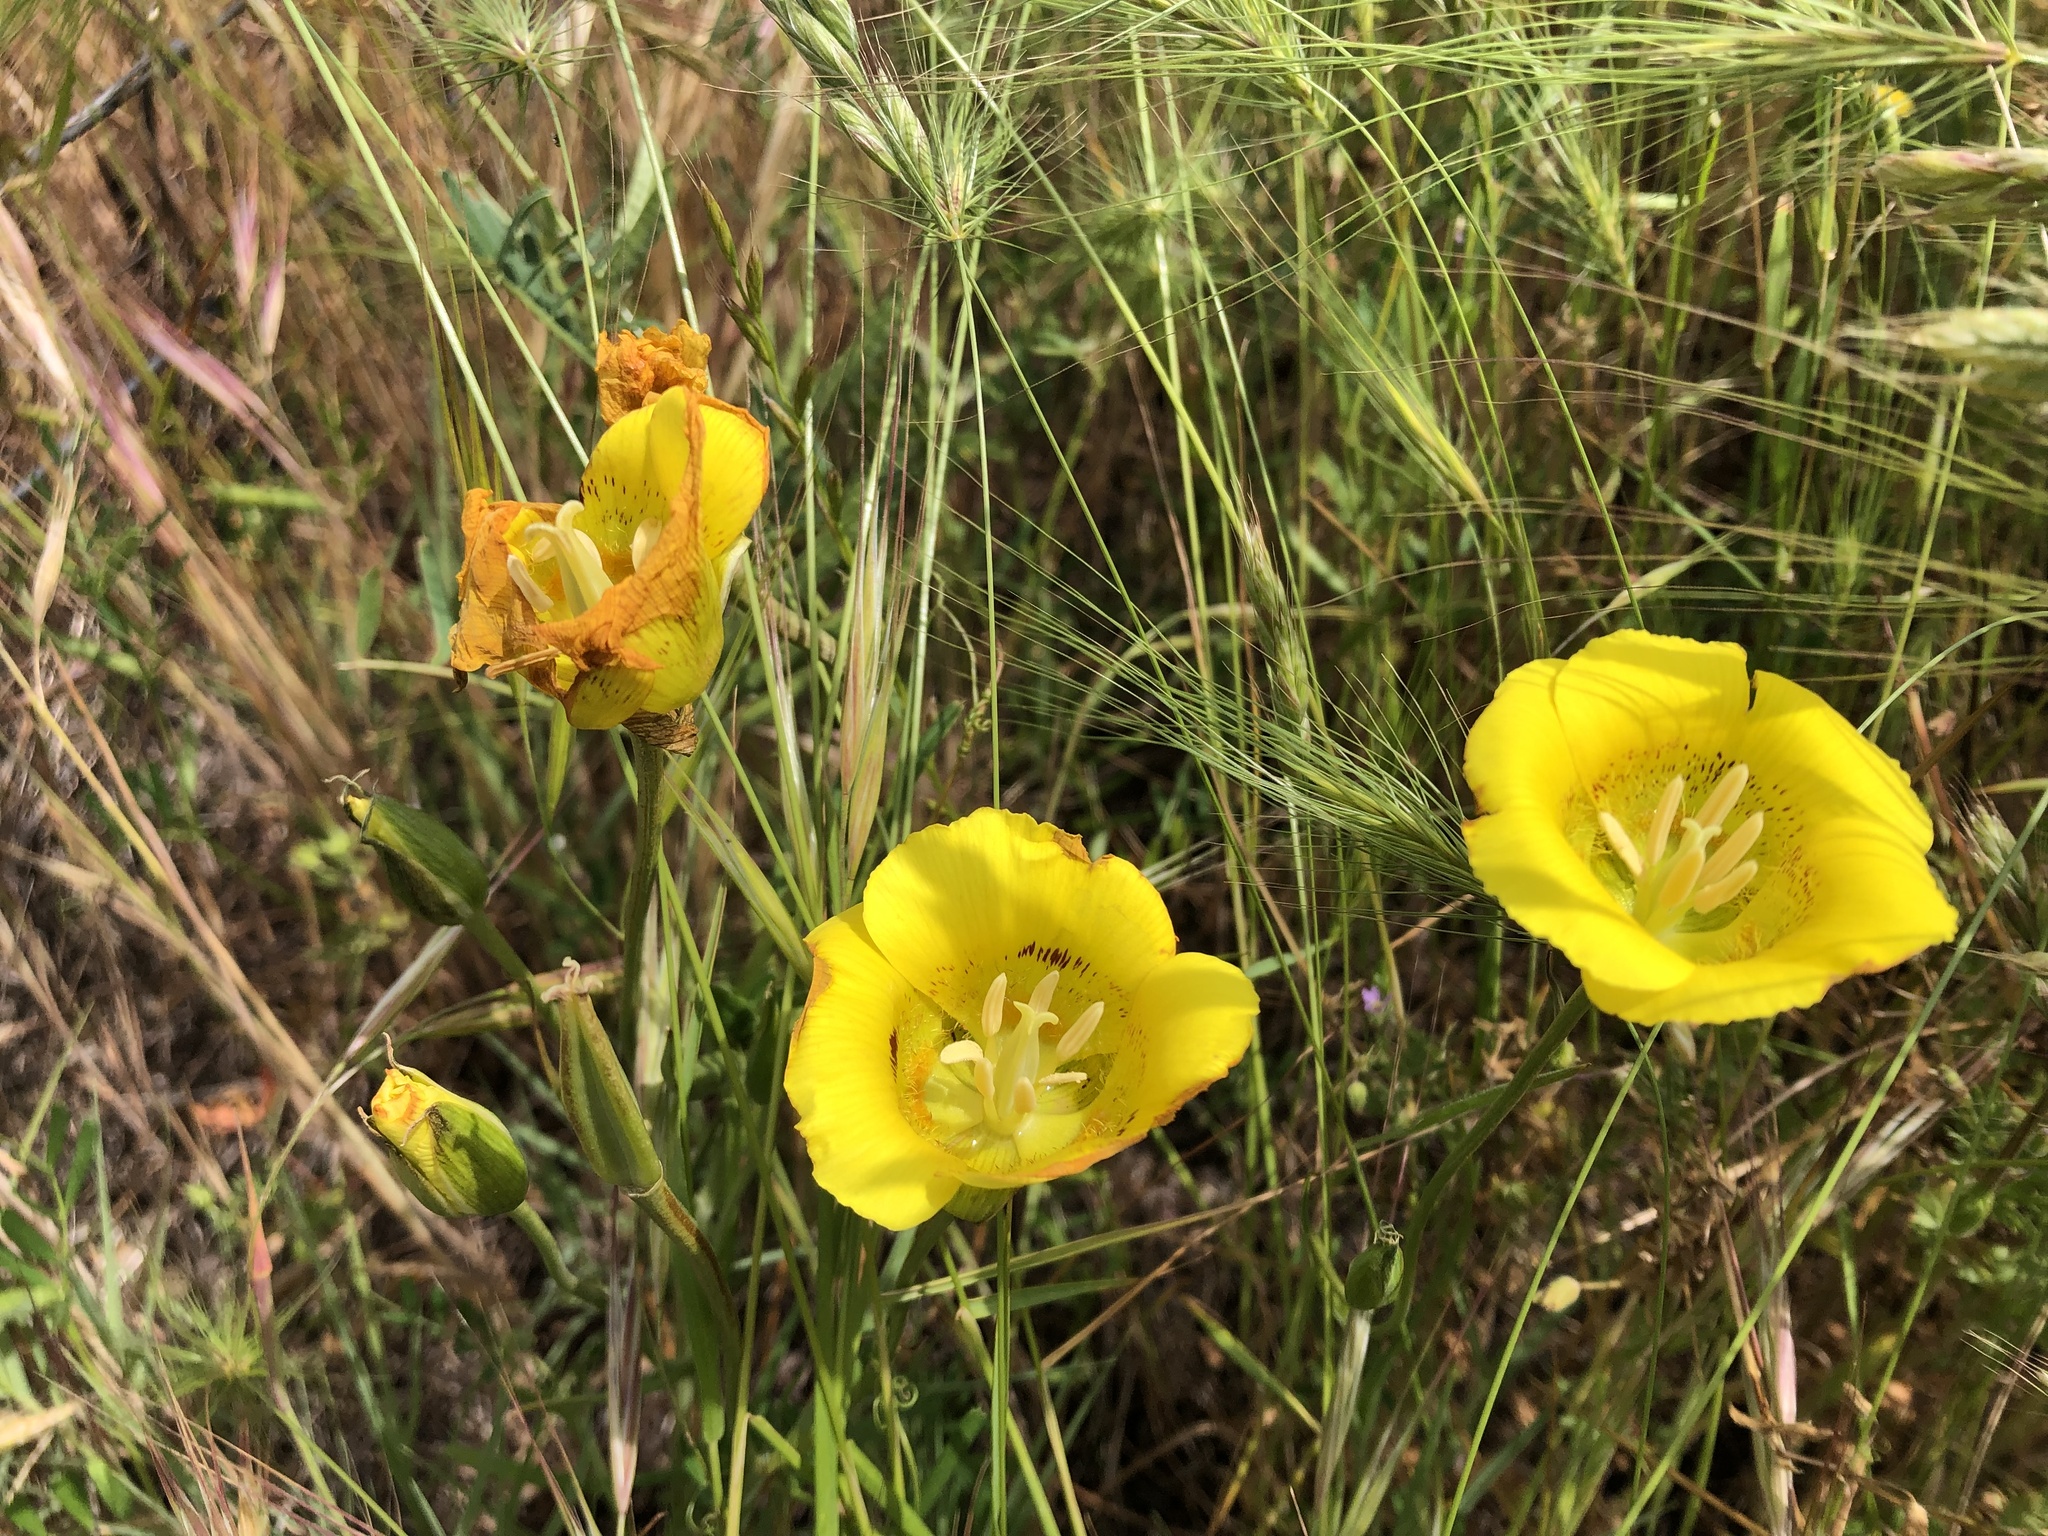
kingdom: Plantae
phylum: Tracheophyta
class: Liliopsida
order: Liliales
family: Liliaceae
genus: Calochortus
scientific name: Calochortus luteus
